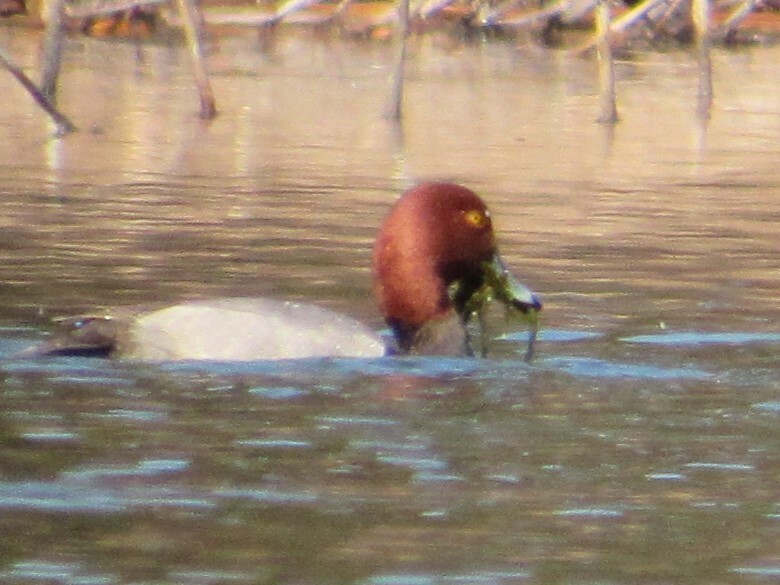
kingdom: Animalia
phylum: Chordata
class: Aves
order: Anseriformes
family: Anatidae
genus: Aythya
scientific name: Aythya americana
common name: Redhead
